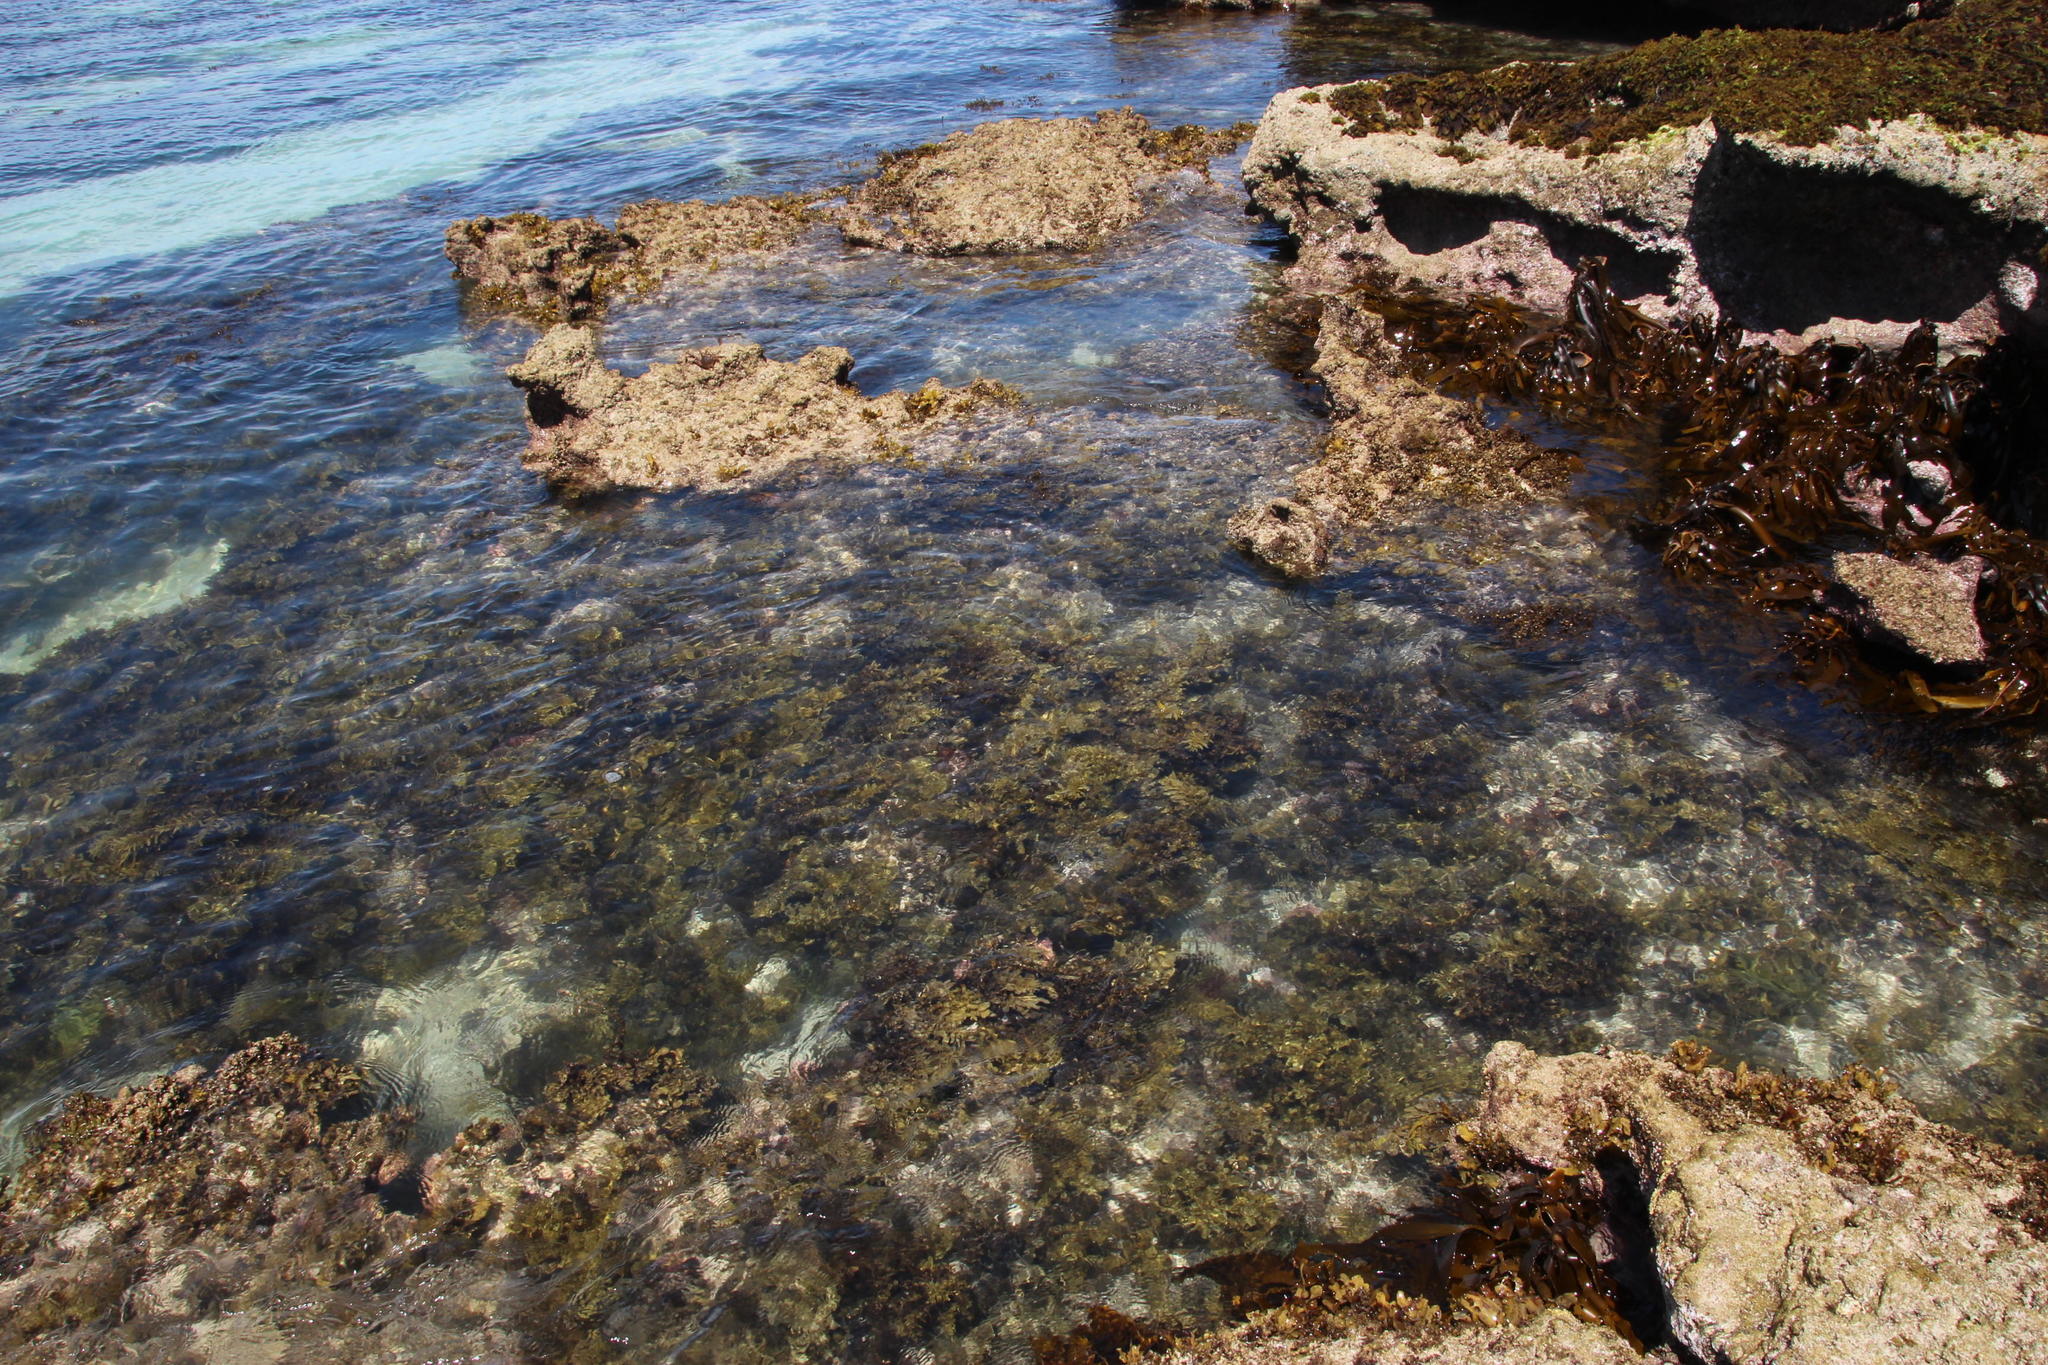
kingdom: Chromista
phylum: Ochrophyta
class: Phaeophyceae
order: Fucales
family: Sargassaceae
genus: Sargassum
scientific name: Sargassum incisifolium
